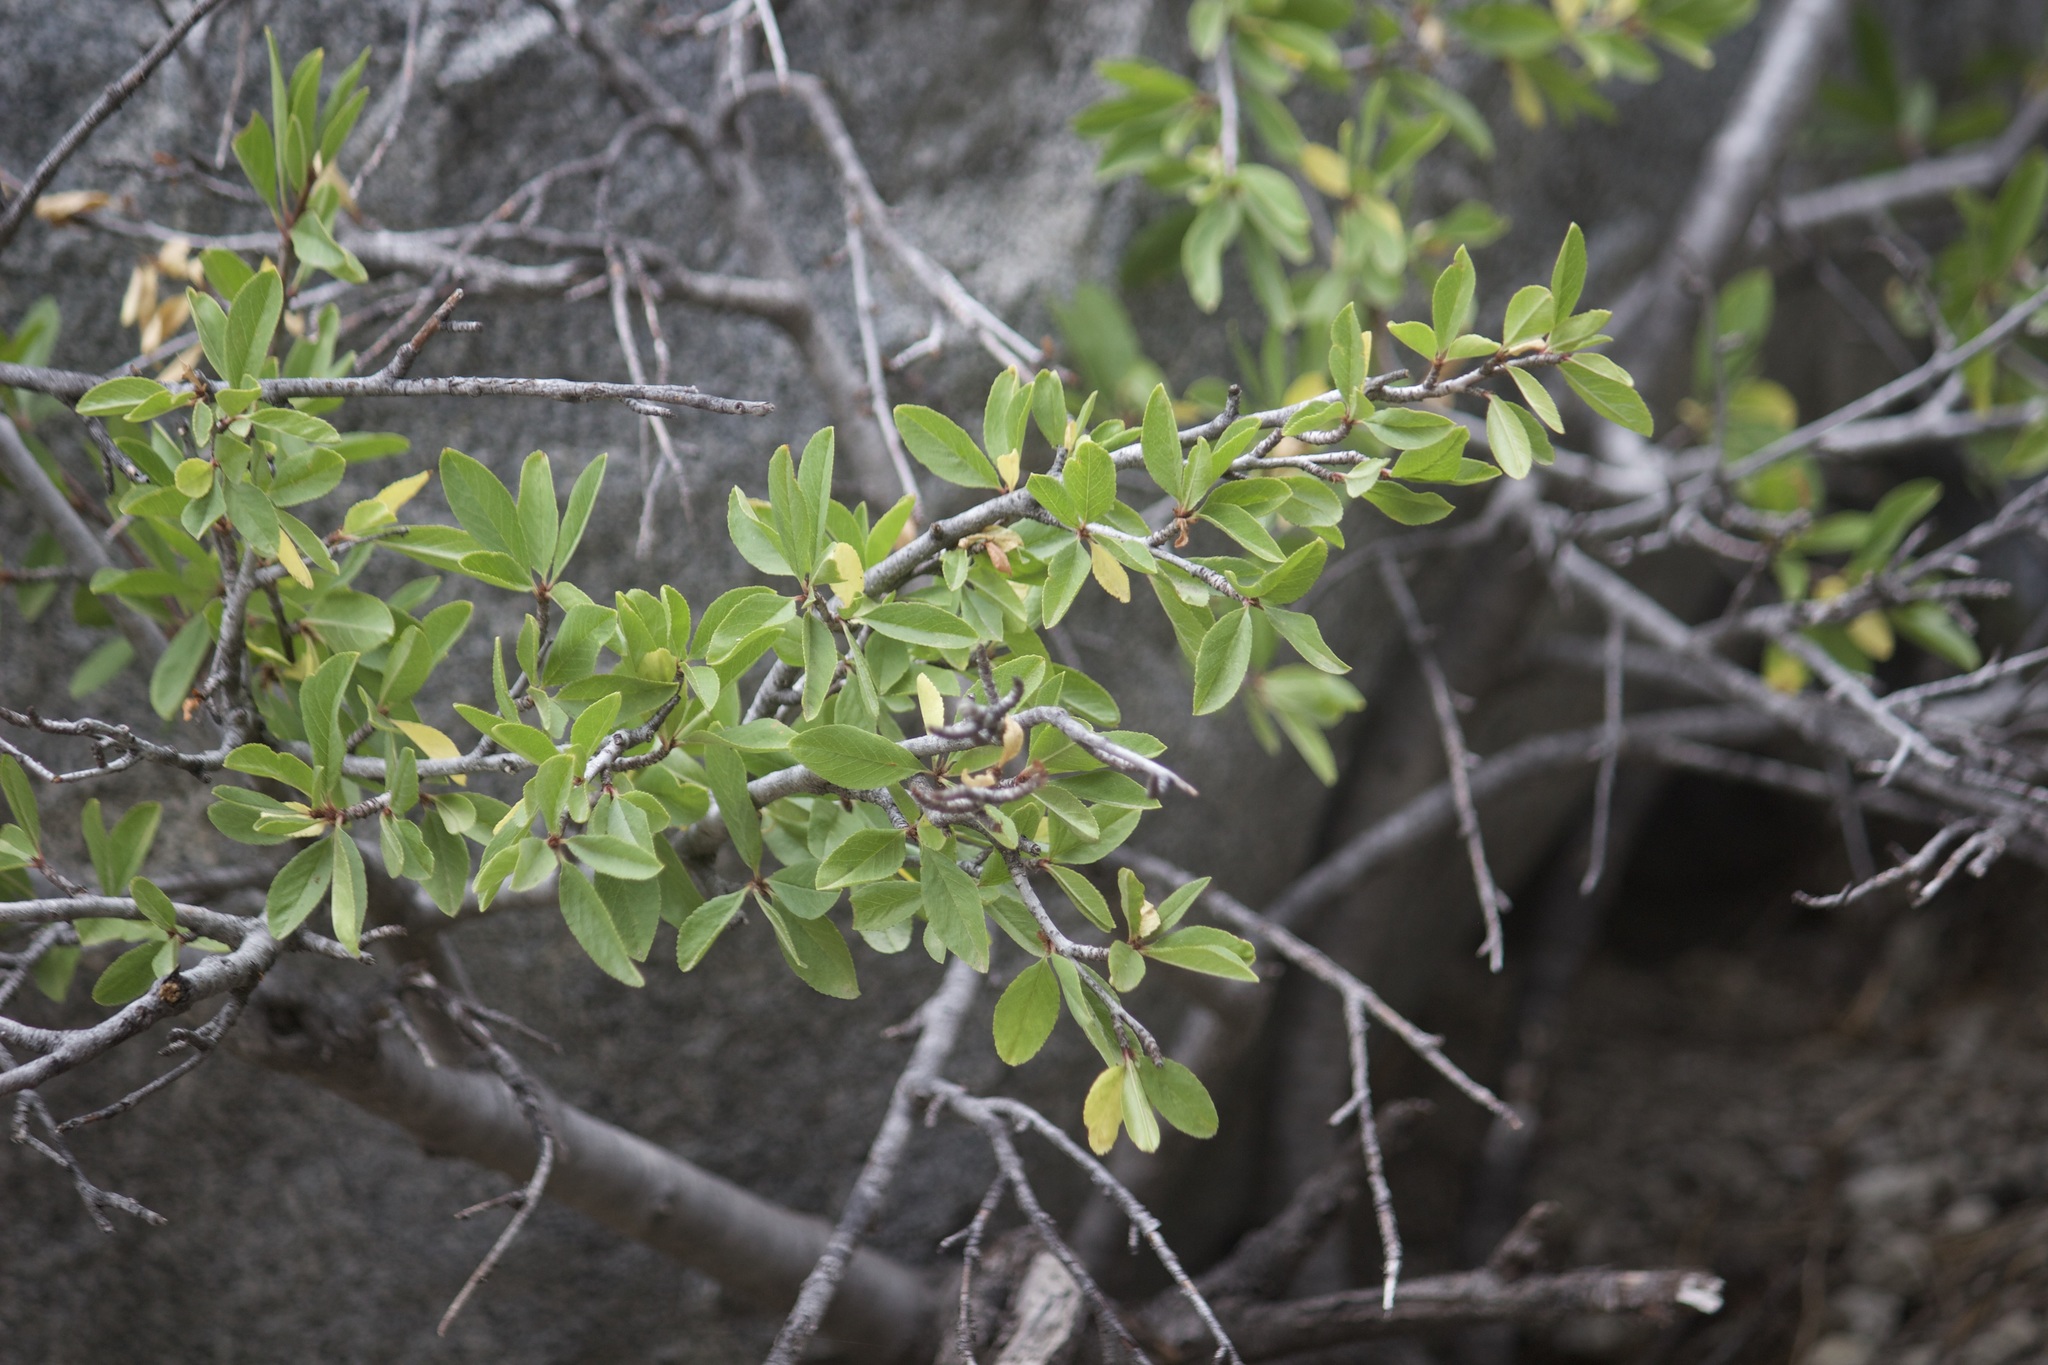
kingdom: Plantae
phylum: Tracheophyta
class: Magnoliopsida
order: Rosales
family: Rosaceae
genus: Prunus
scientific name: Prunus emarginata
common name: Bitter cherry
